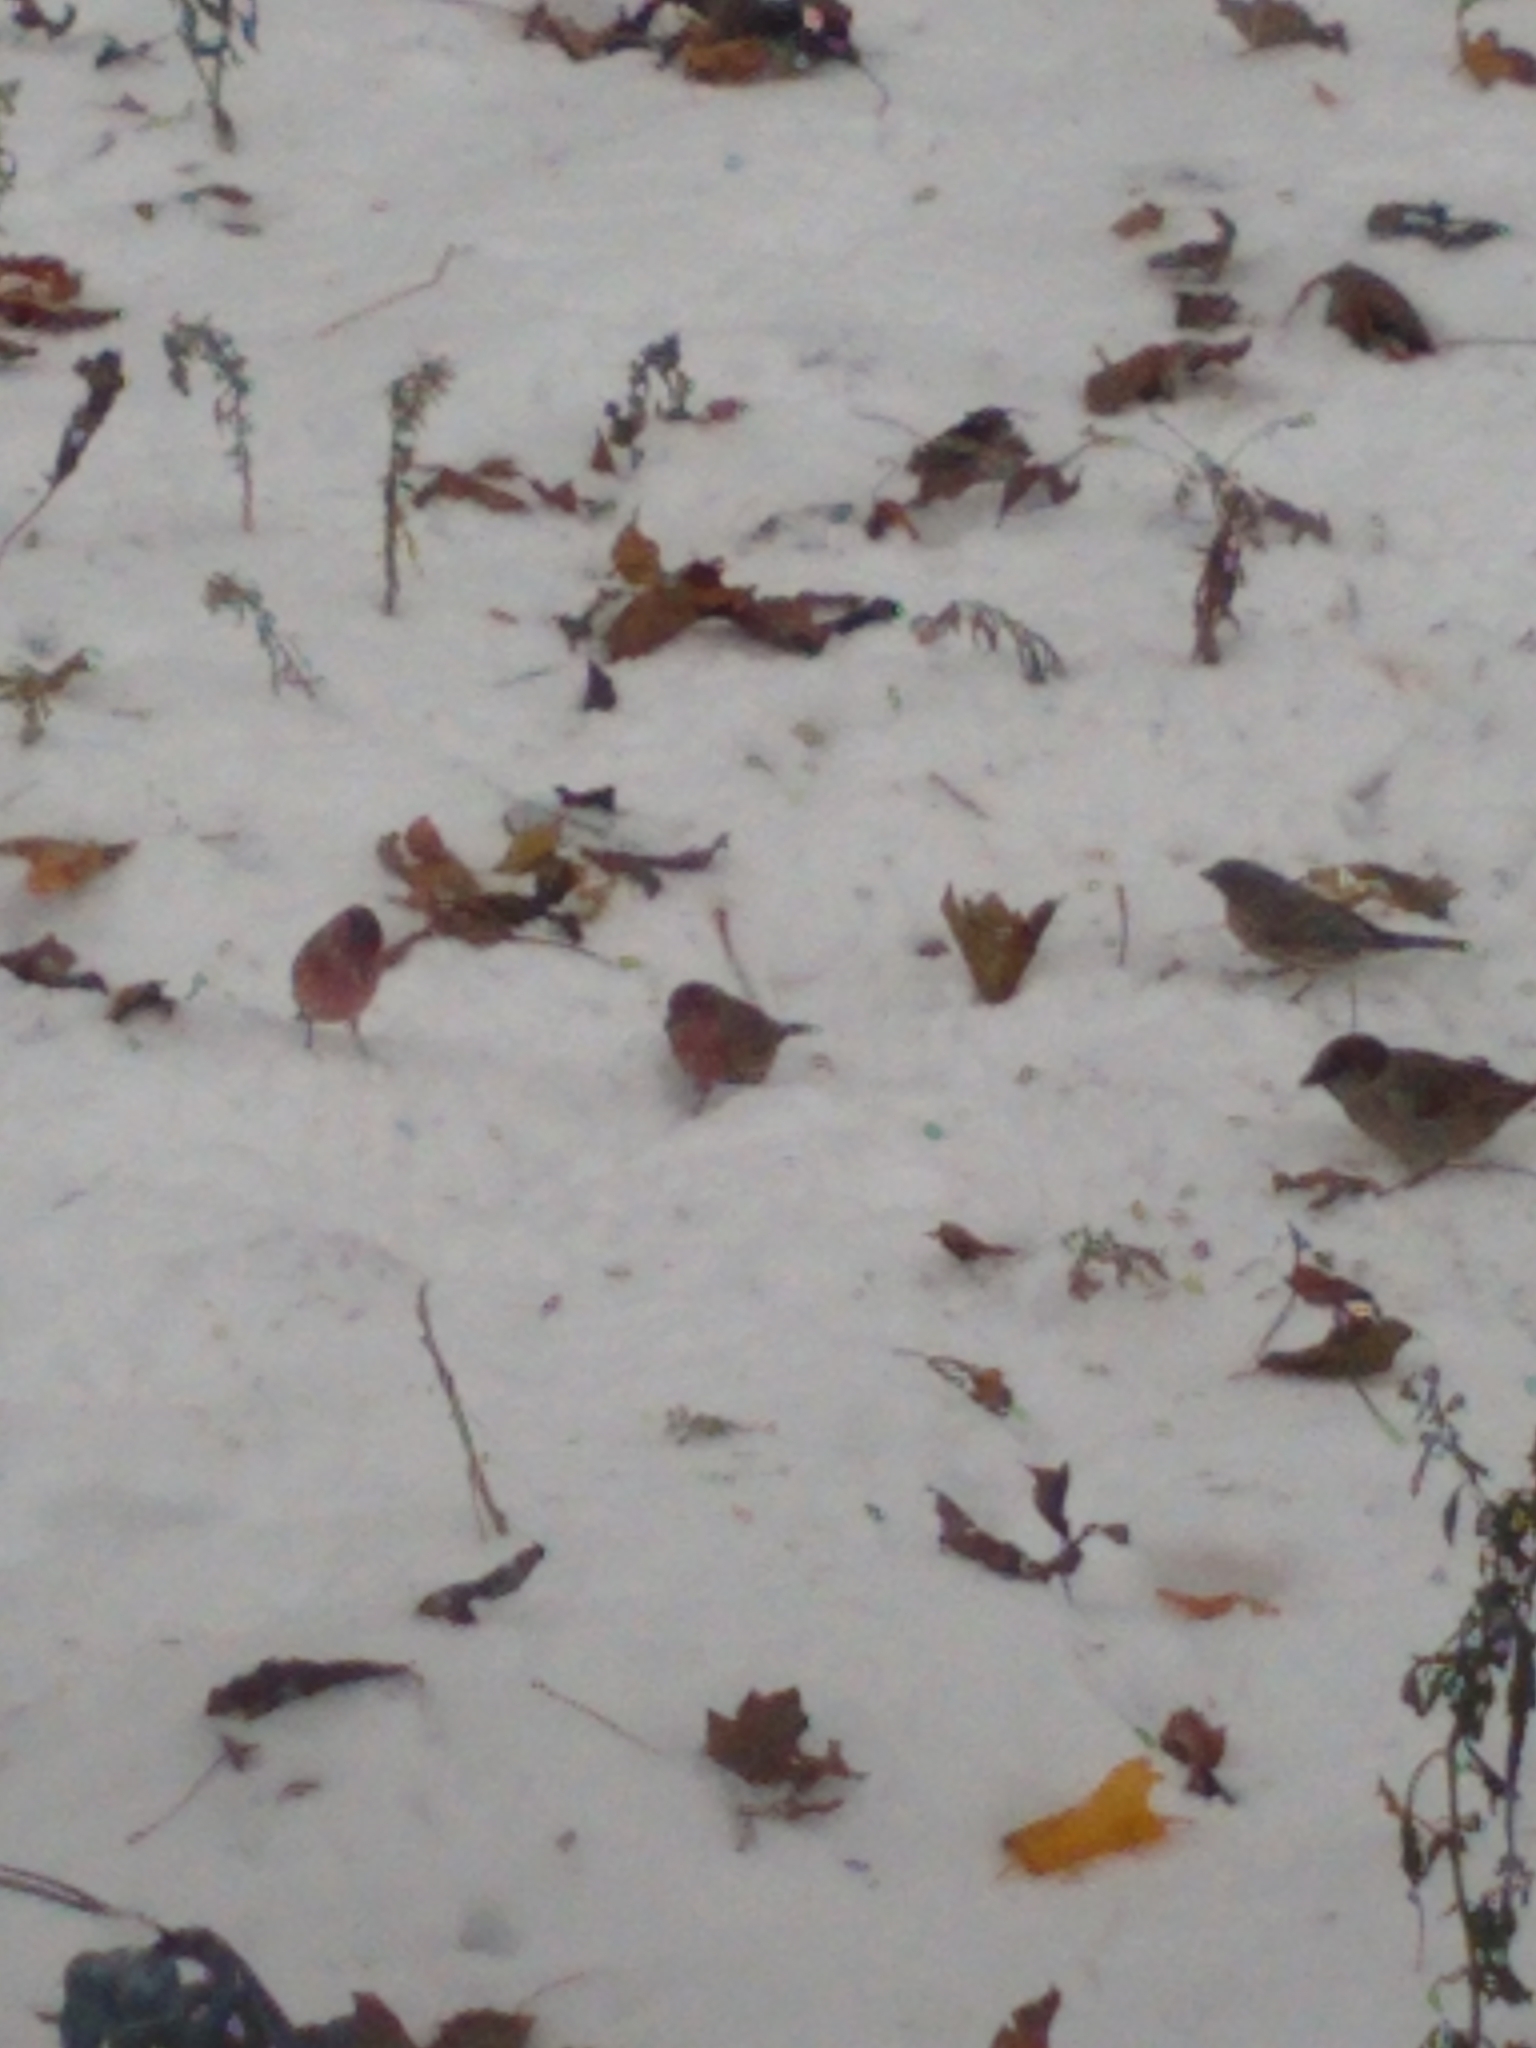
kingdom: Animalia
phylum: Chordata
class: Aves
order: Passeriformes
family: Fringillidae
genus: Haemorhous
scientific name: Haemorhous mexicanus
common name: House finch
